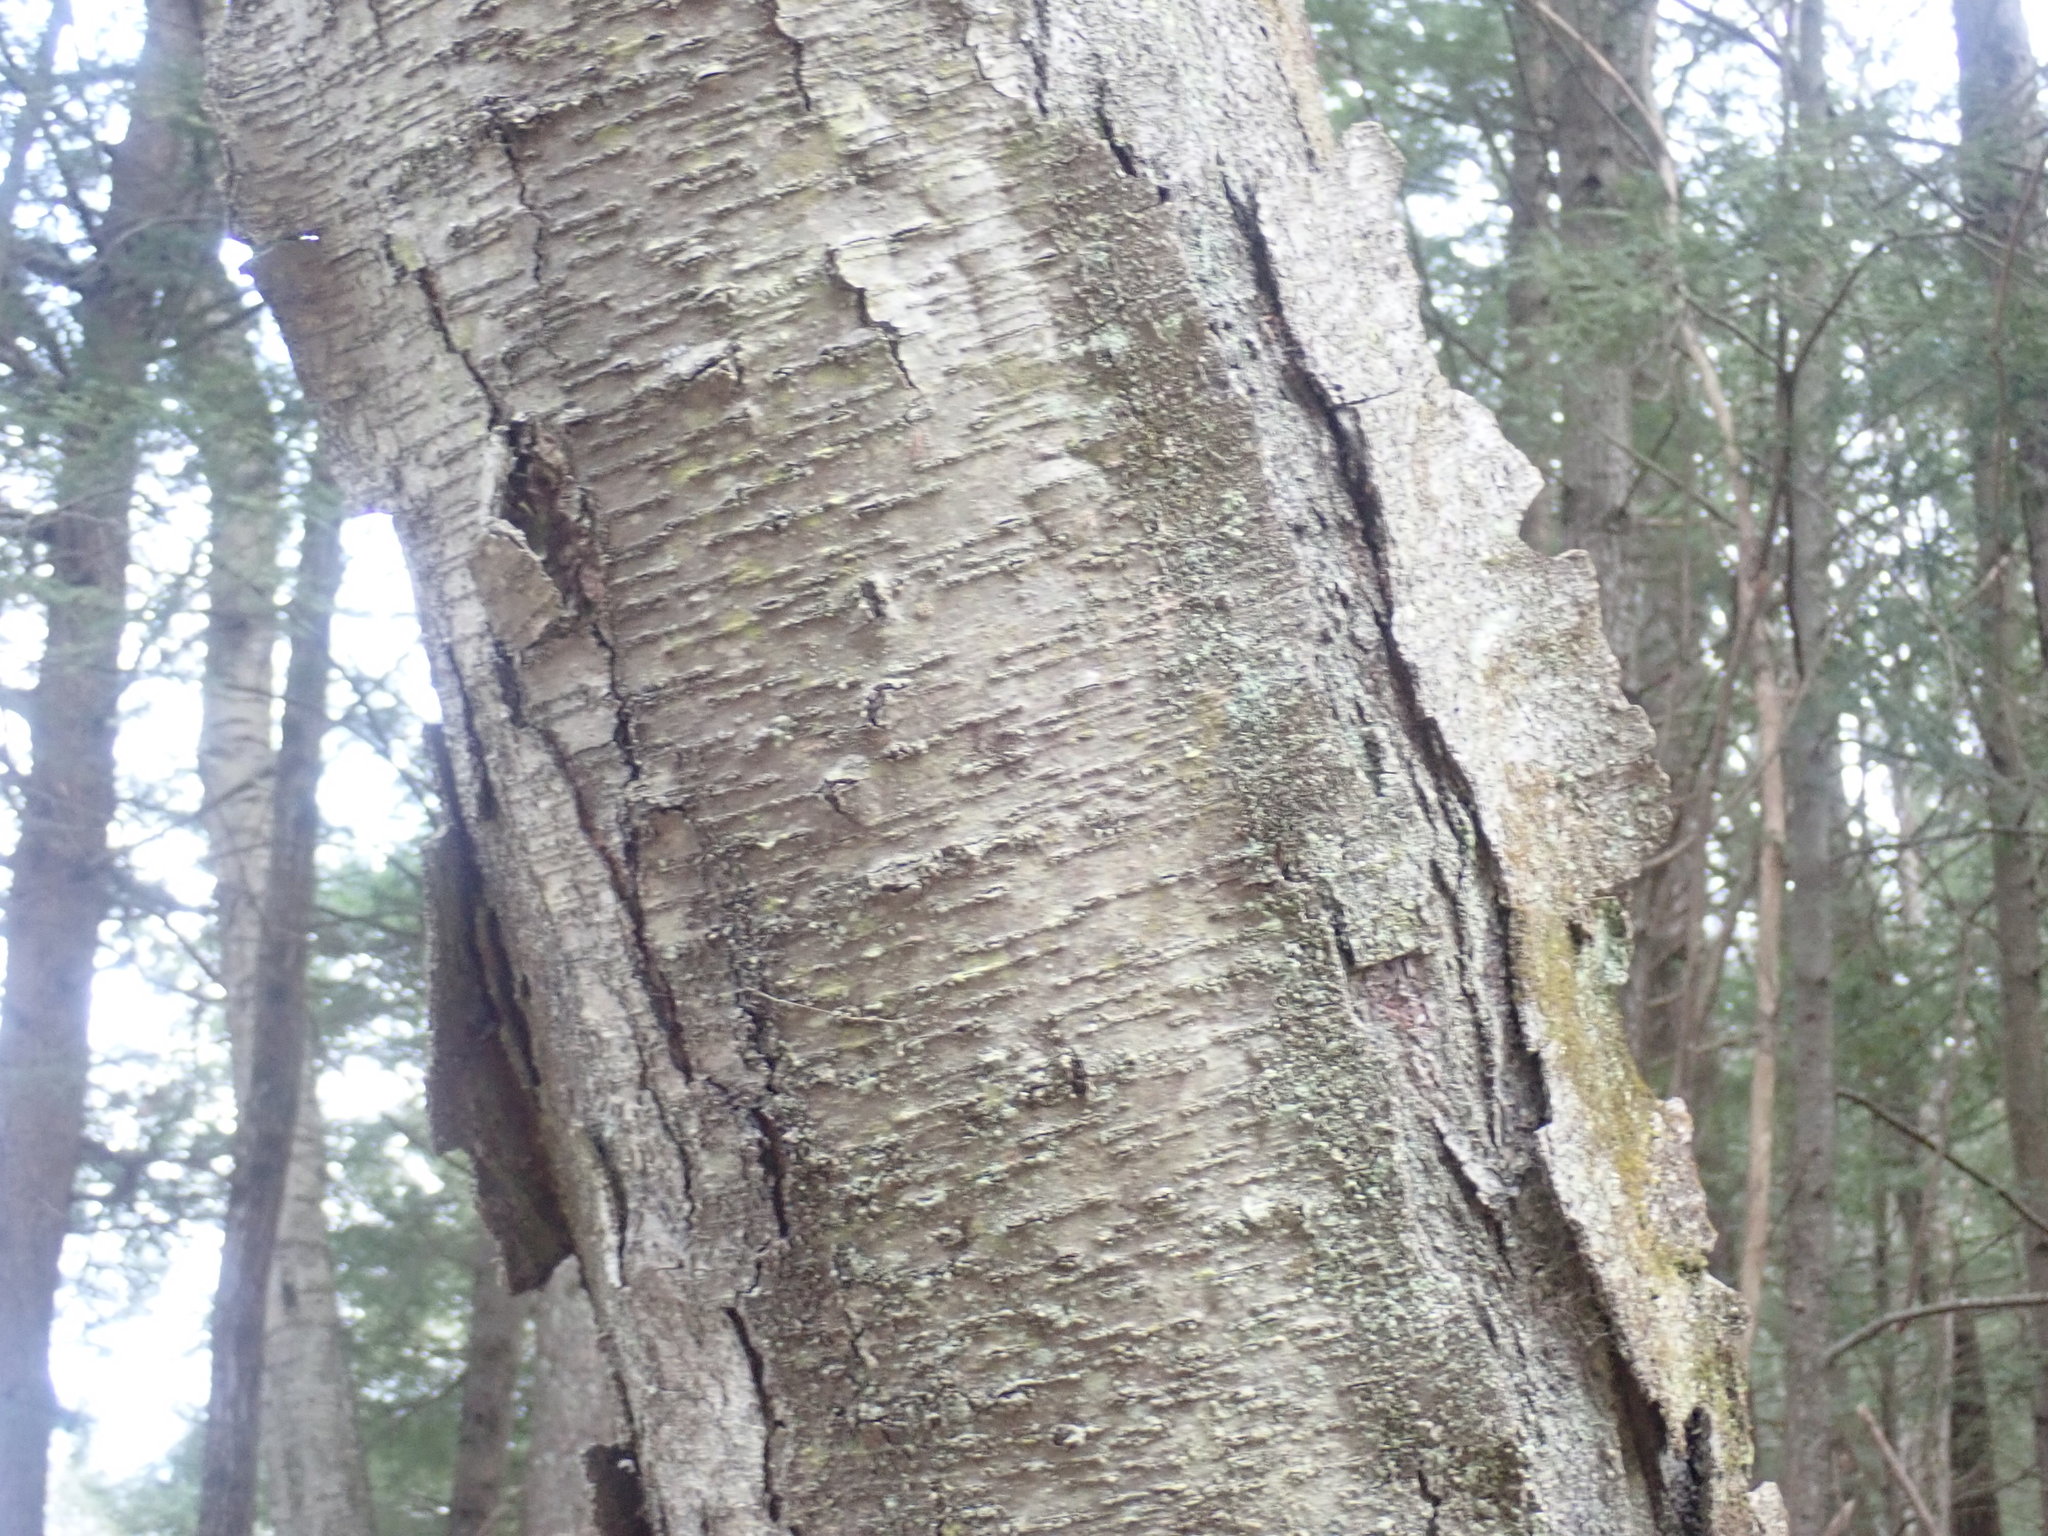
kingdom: Plantae
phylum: Tracheophyta
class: Magnoliopsida
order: Fagales
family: Betulaceae
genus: Betula
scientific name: Betula lenta
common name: Black birch
